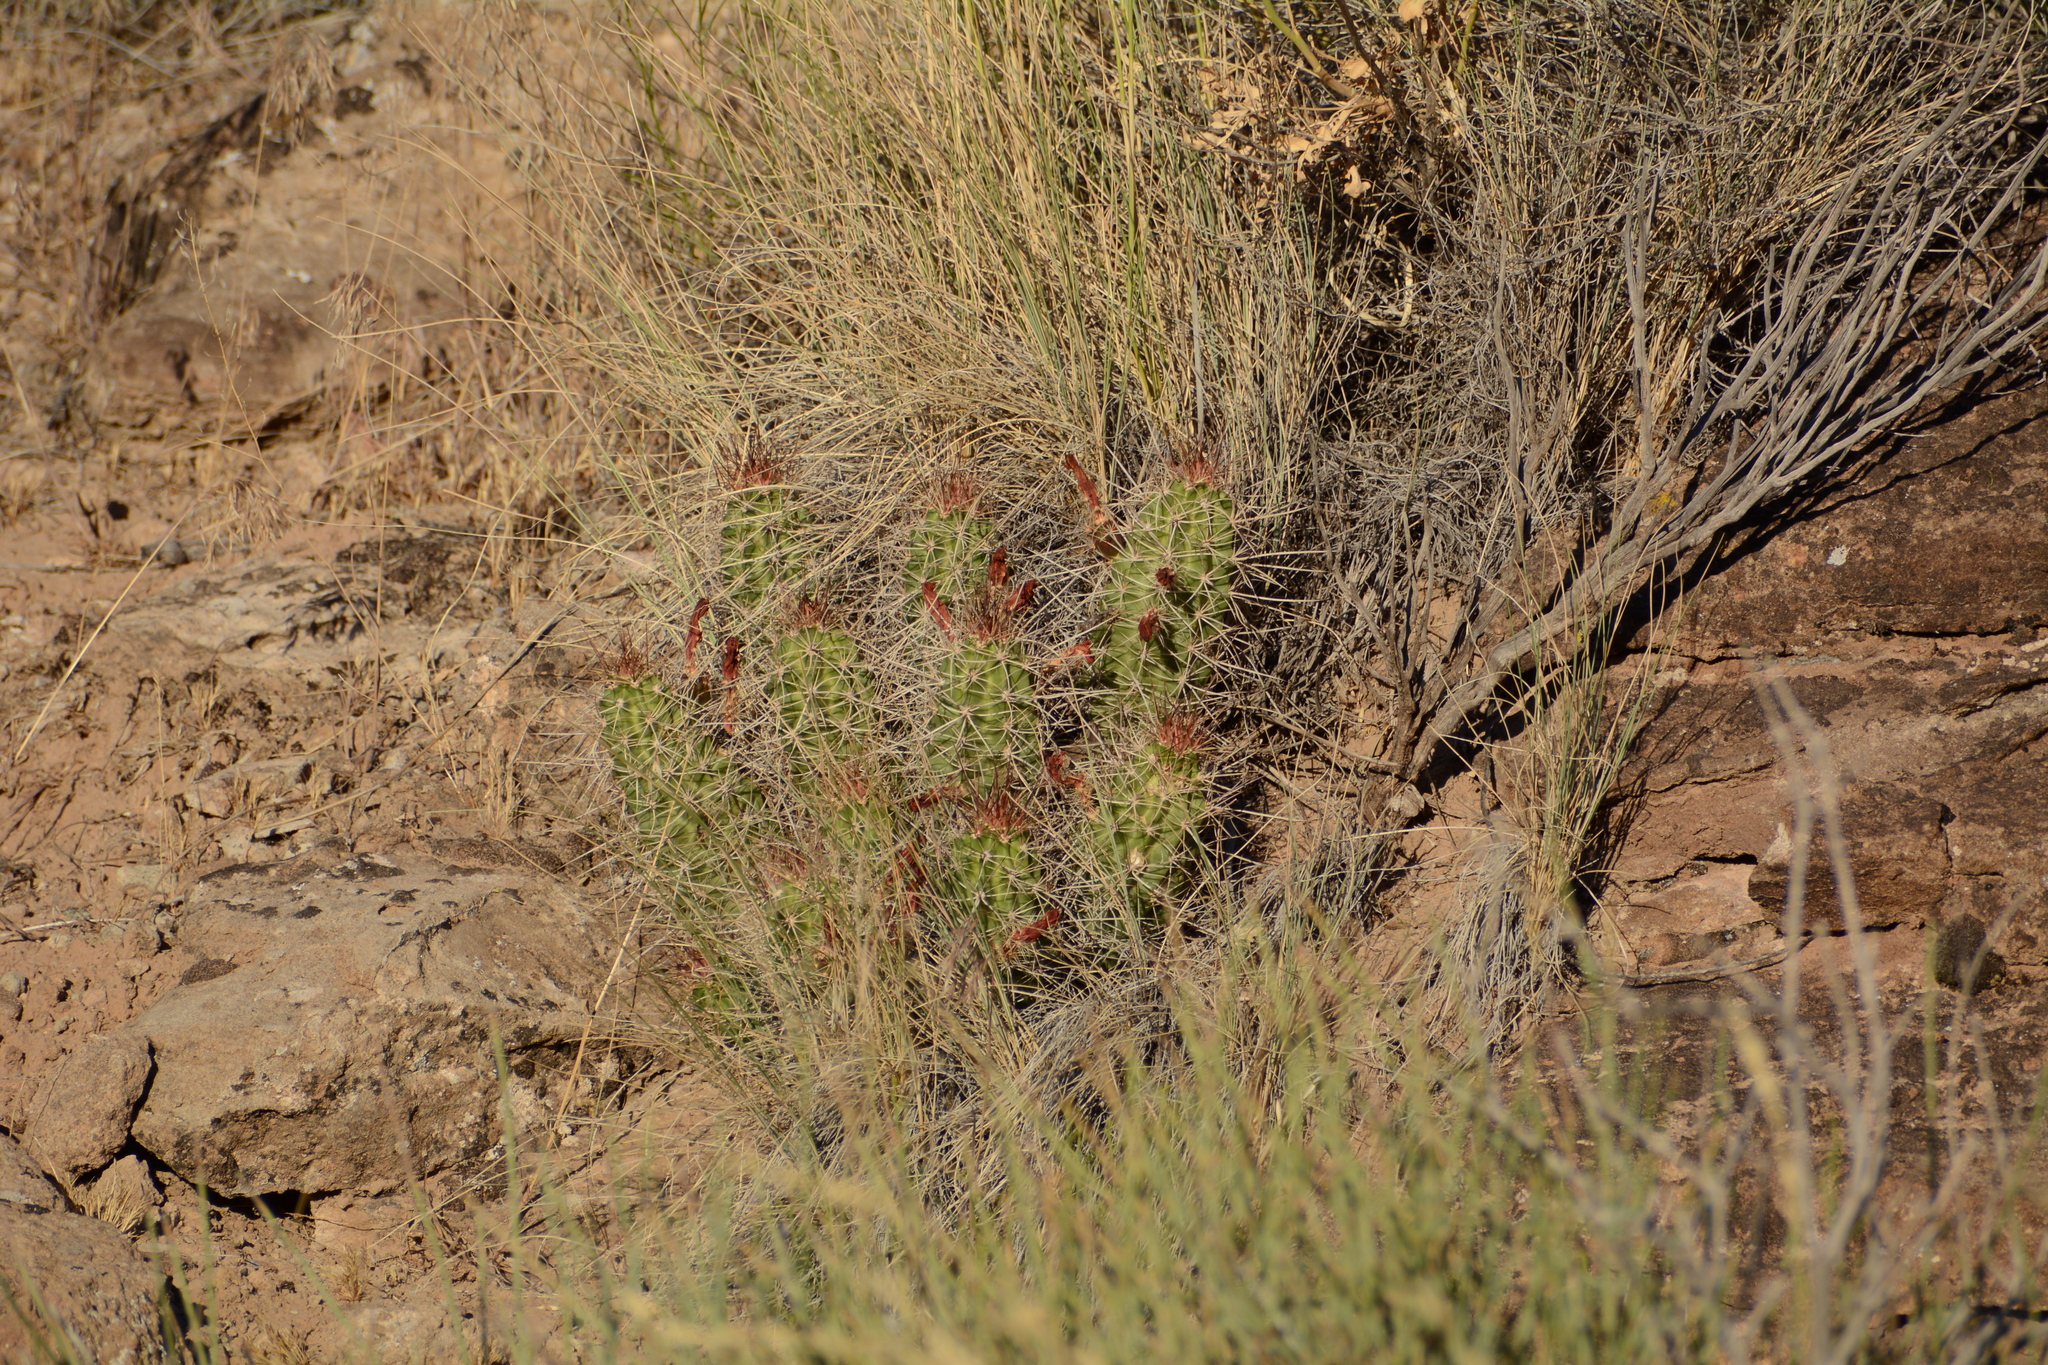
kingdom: Plantae
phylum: Tracheophyta
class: Magnoliopsida
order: Caryophyllales
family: Cactaceae
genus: Echinocereus
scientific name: Echinocereus triglochidiatus
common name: Claretcup hedgehog
